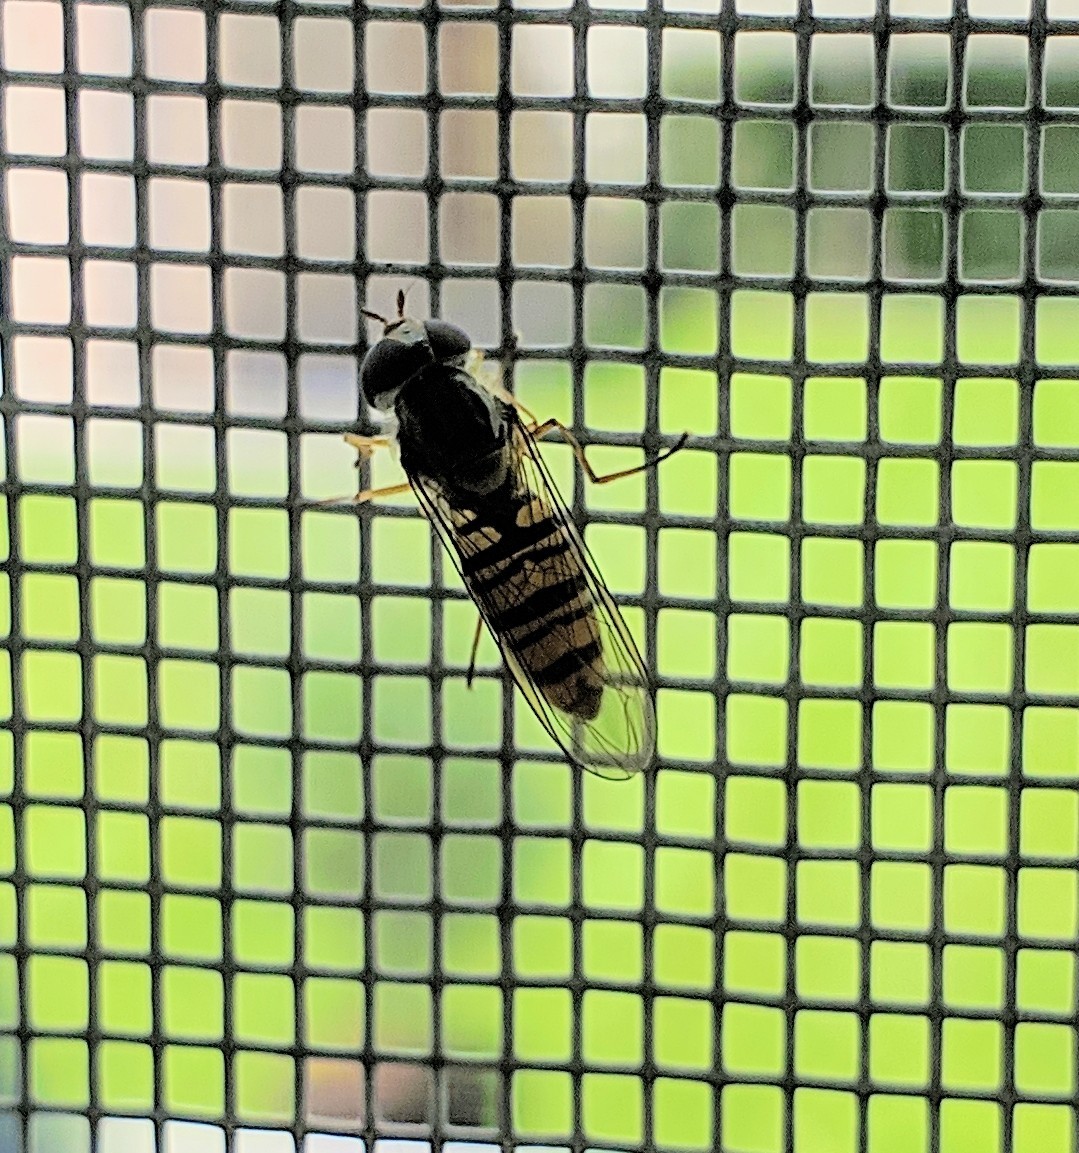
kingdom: Animalia
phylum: Arthropoda
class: Insecta
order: Diptera
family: Syrphidae
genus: Episyrphus
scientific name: Episyrphus balteatus
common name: Marmalade hoverfly
